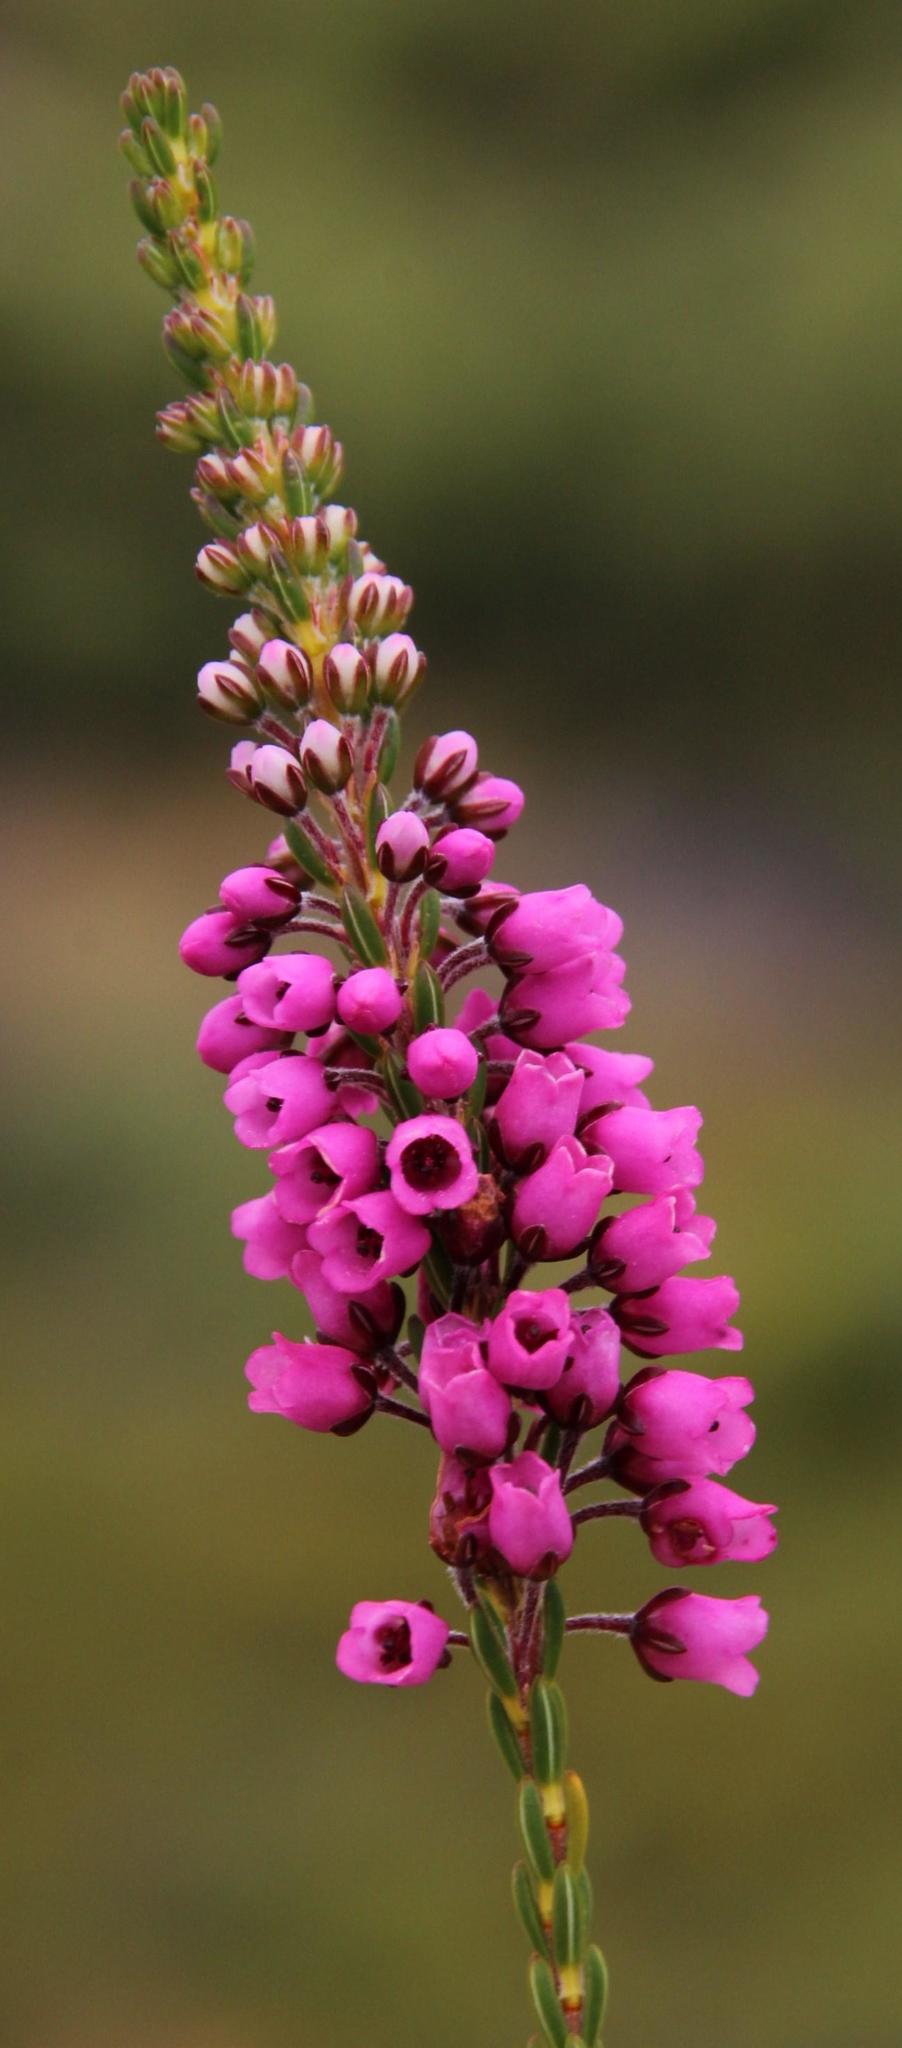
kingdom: Plantae
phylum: Tracheophyta
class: Magnoliopsida
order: Ericales
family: Ericaceae
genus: Erica
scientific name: Erica pulchella
